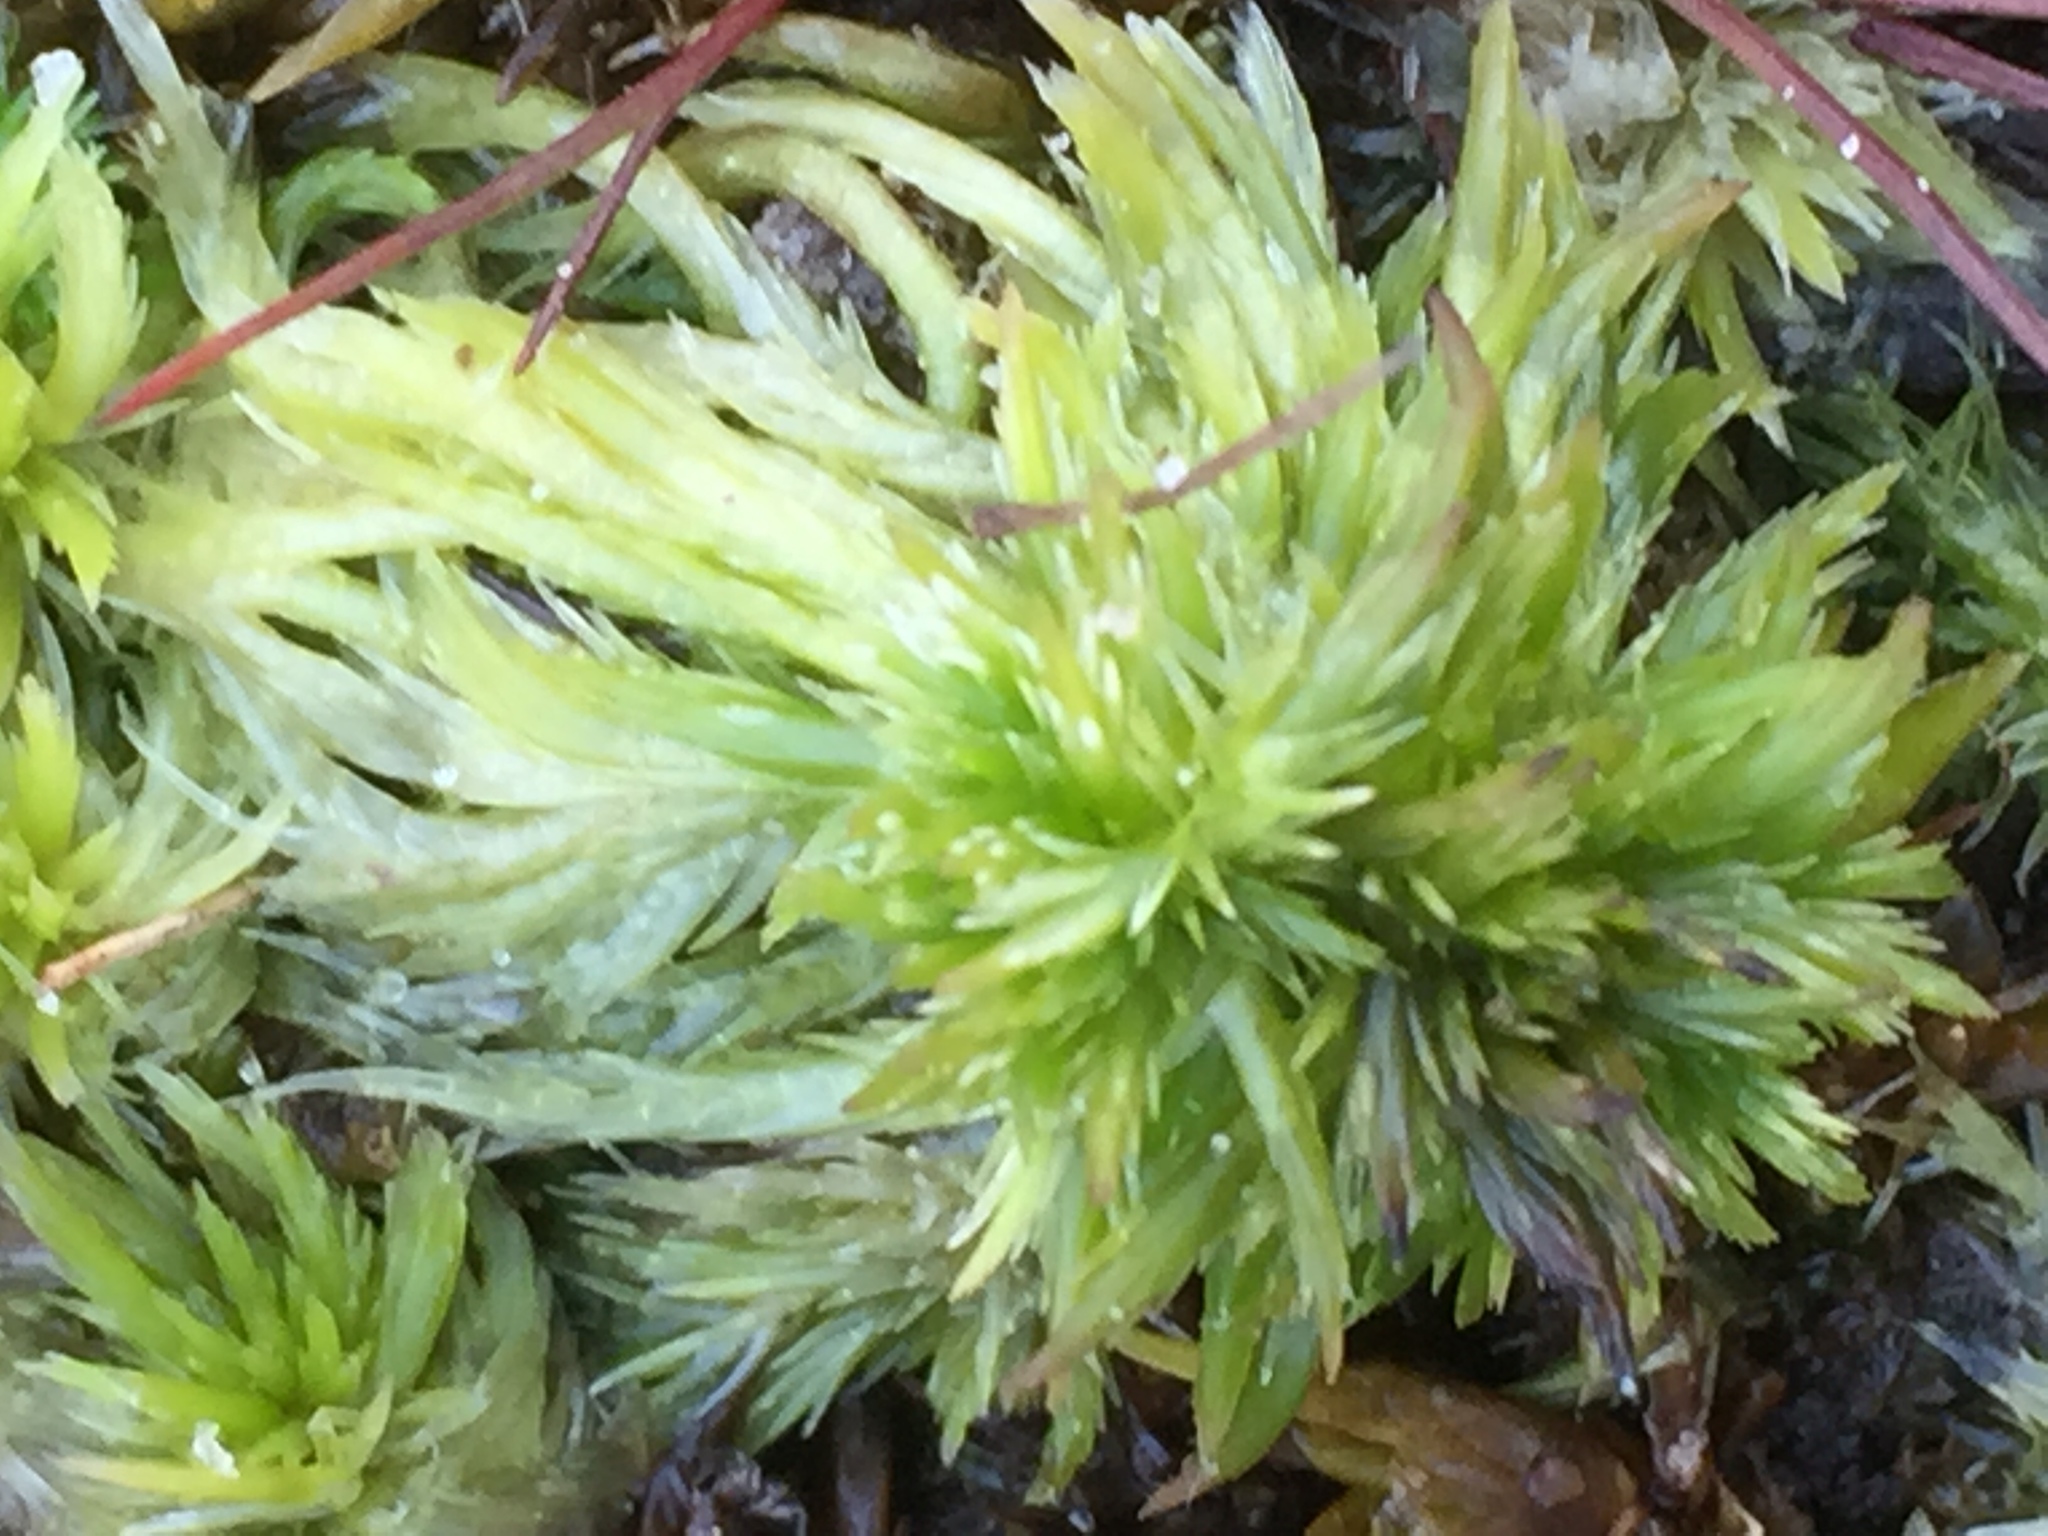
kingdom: Plantae
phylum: Bryophyta
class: Sphagnopsida
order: Sphagnales
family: Sphagnaceae
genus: Sphagnum
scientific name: Sphagnum cuspidatum
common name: Feathery peat moss
